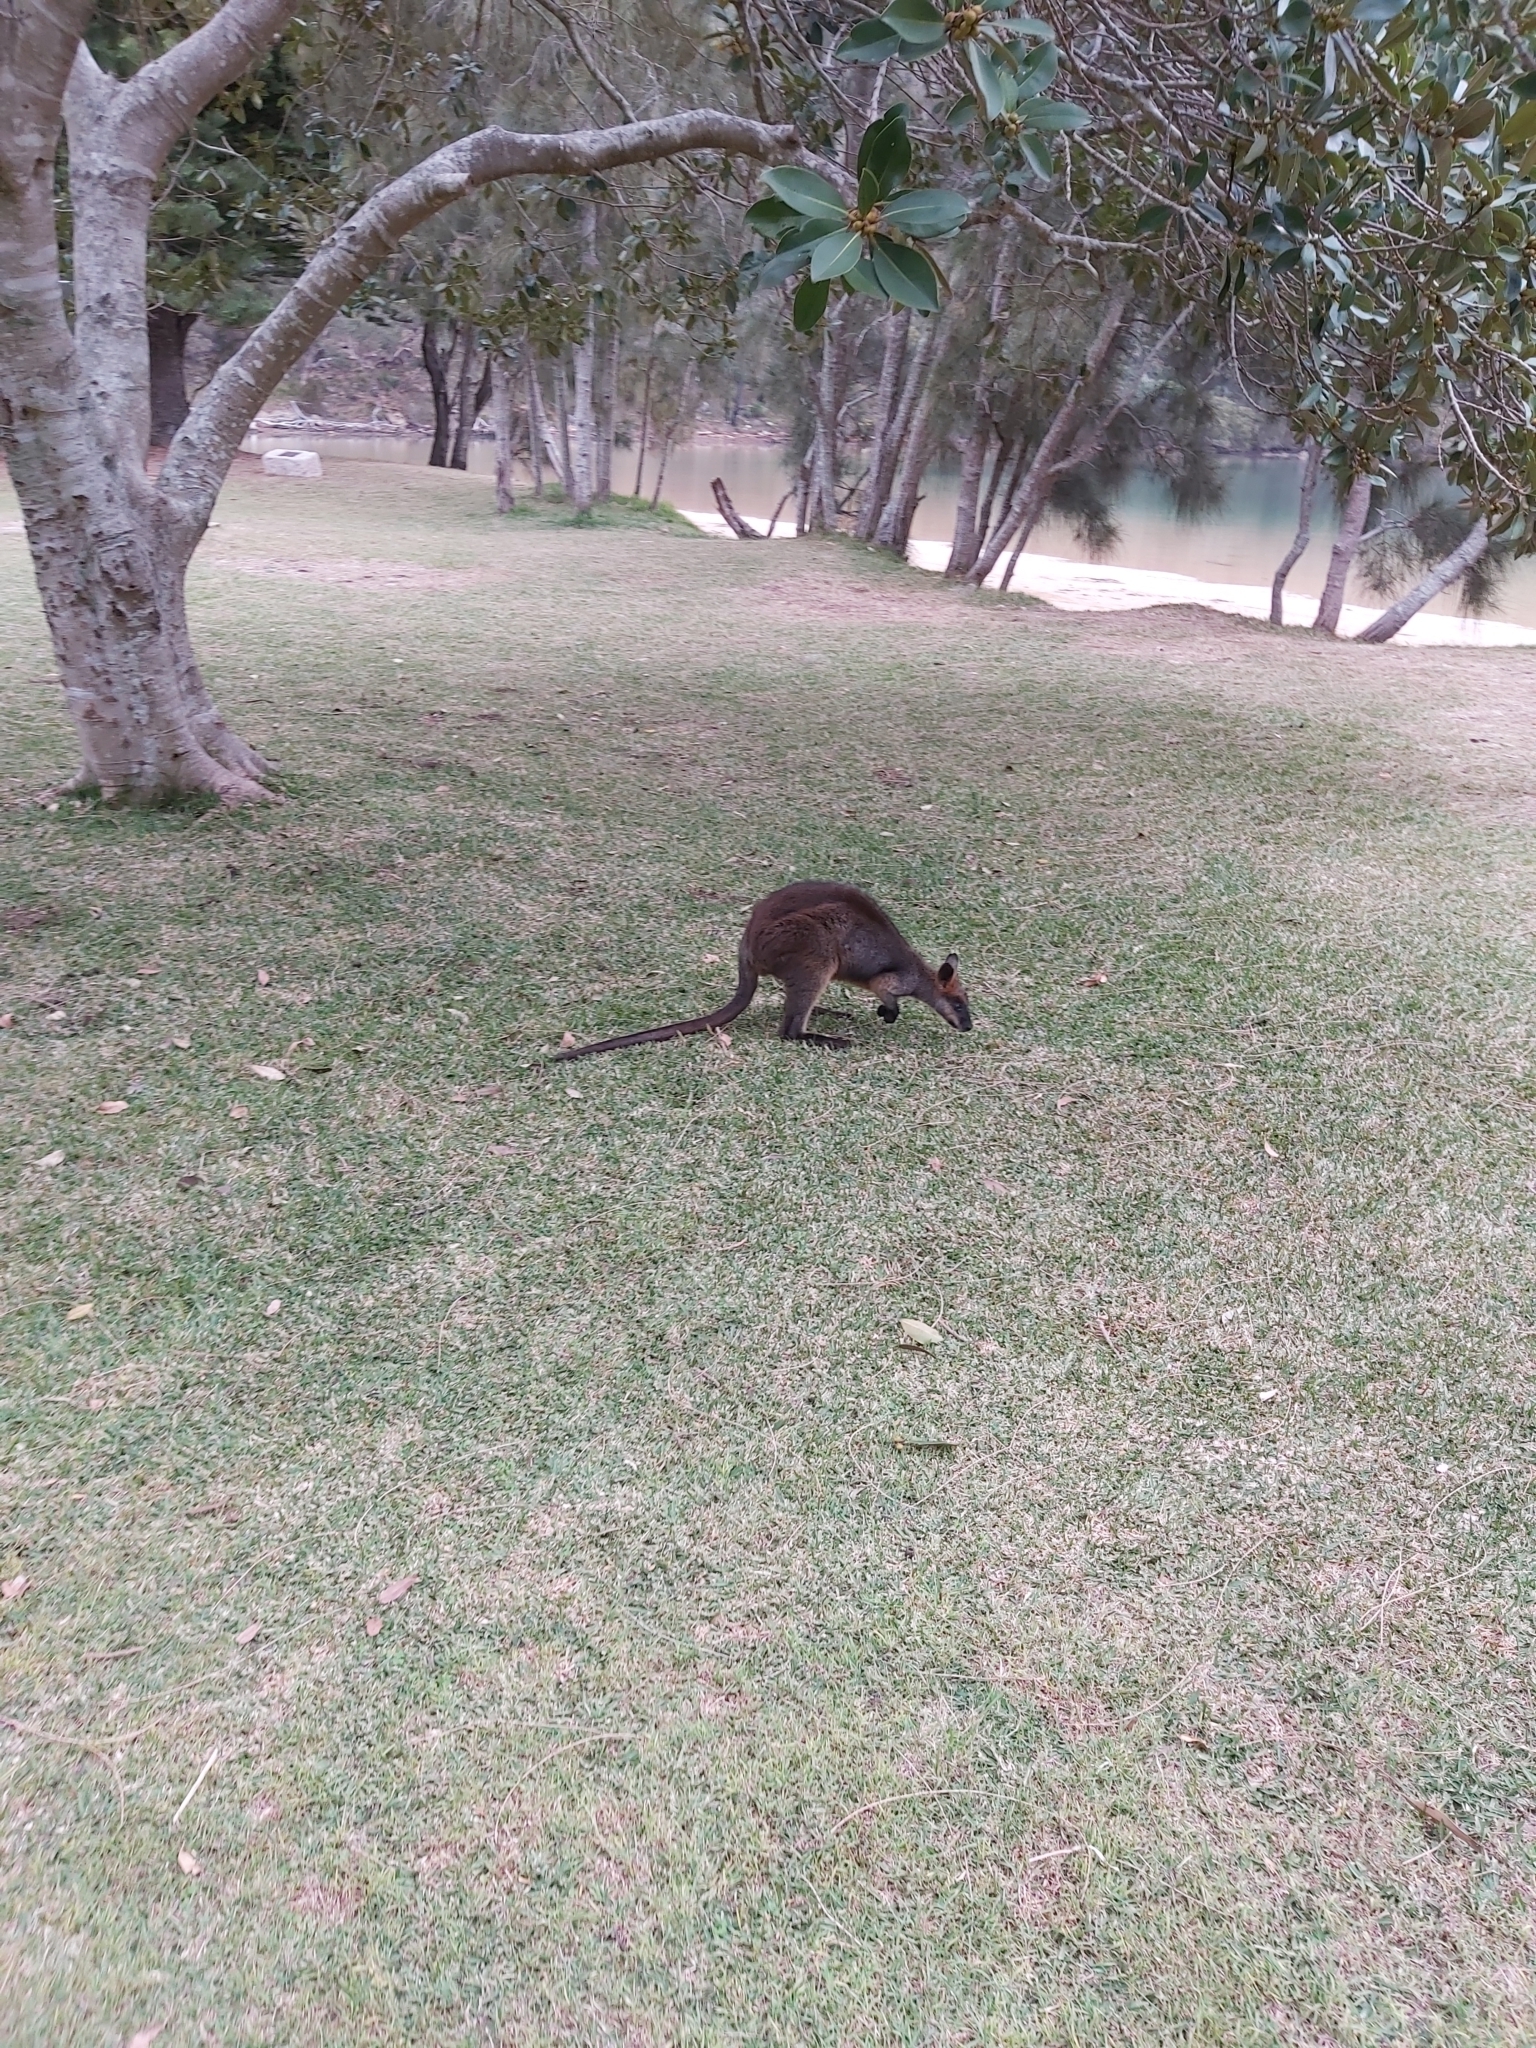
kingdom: Animalia
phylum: Chordata
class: Mammalia
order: Diprotodontia
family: Macropodidae
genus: Wallabia
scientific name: Wallabia bicolor
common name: Swamp wallaby
